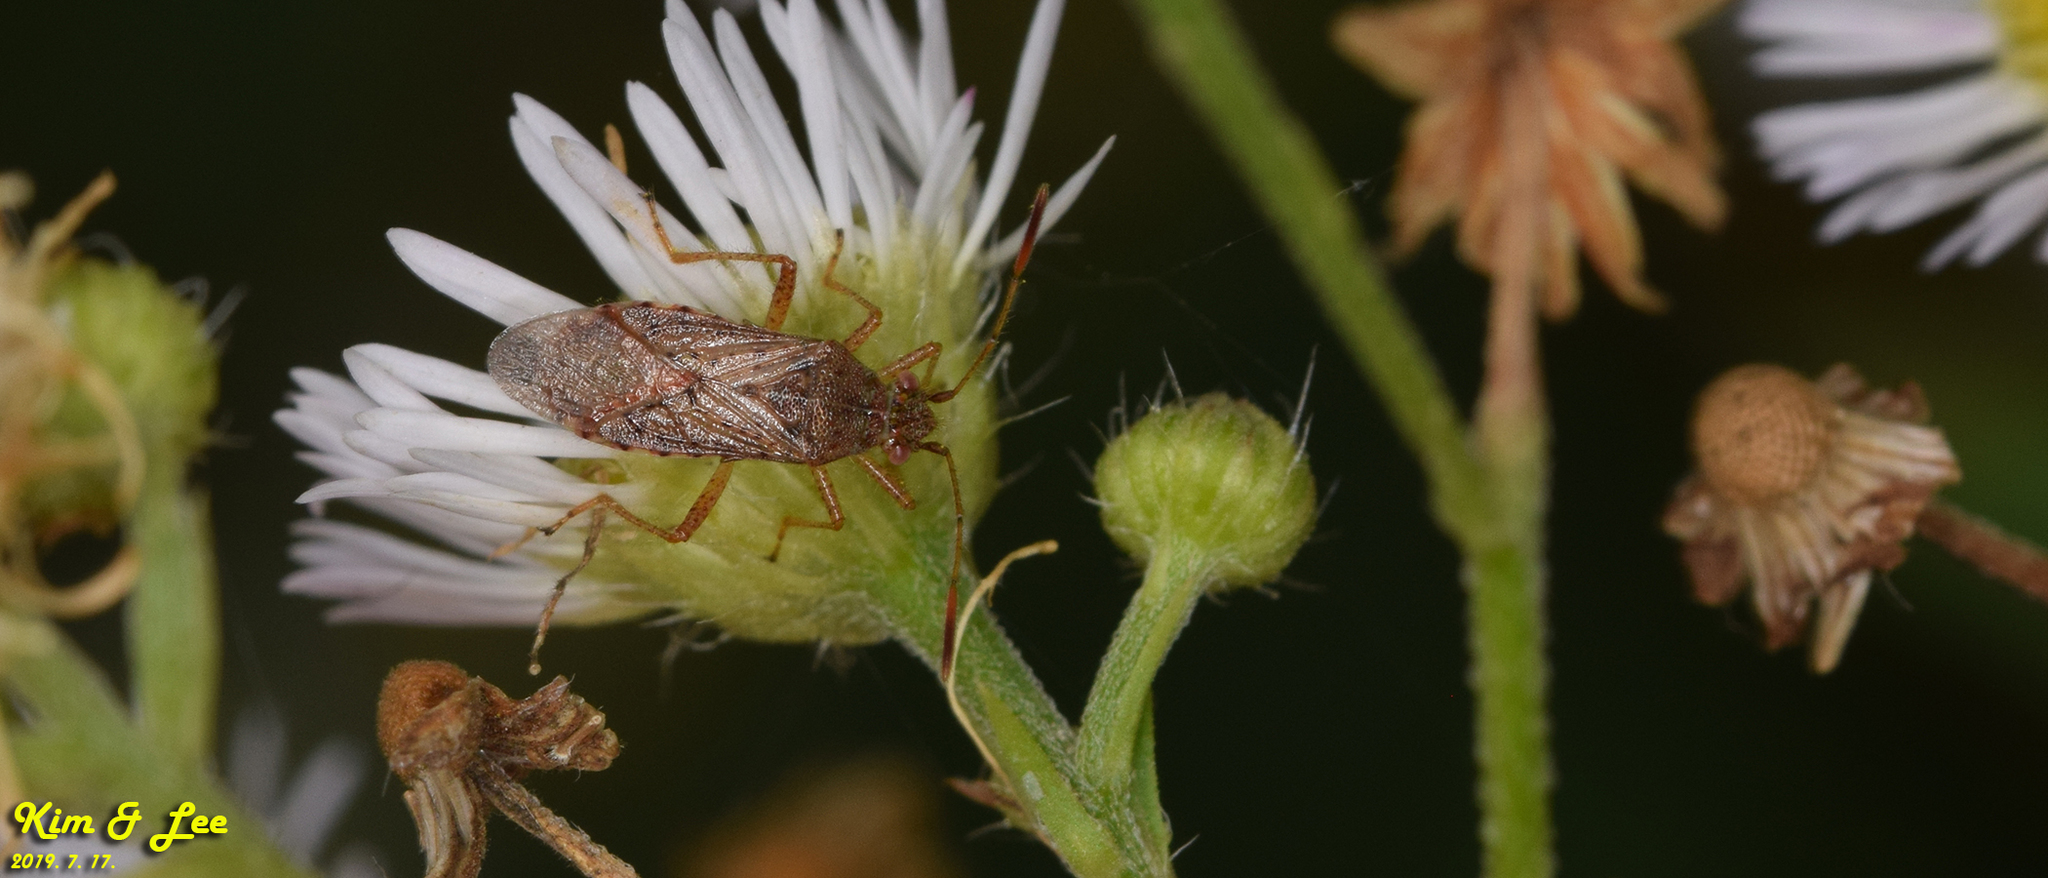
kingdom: Animalia
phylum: Arthropoda
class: Insecta
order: Hemiptera
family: Rhopalidae
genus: Rhopalus
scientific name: Rhopalus maculatus
